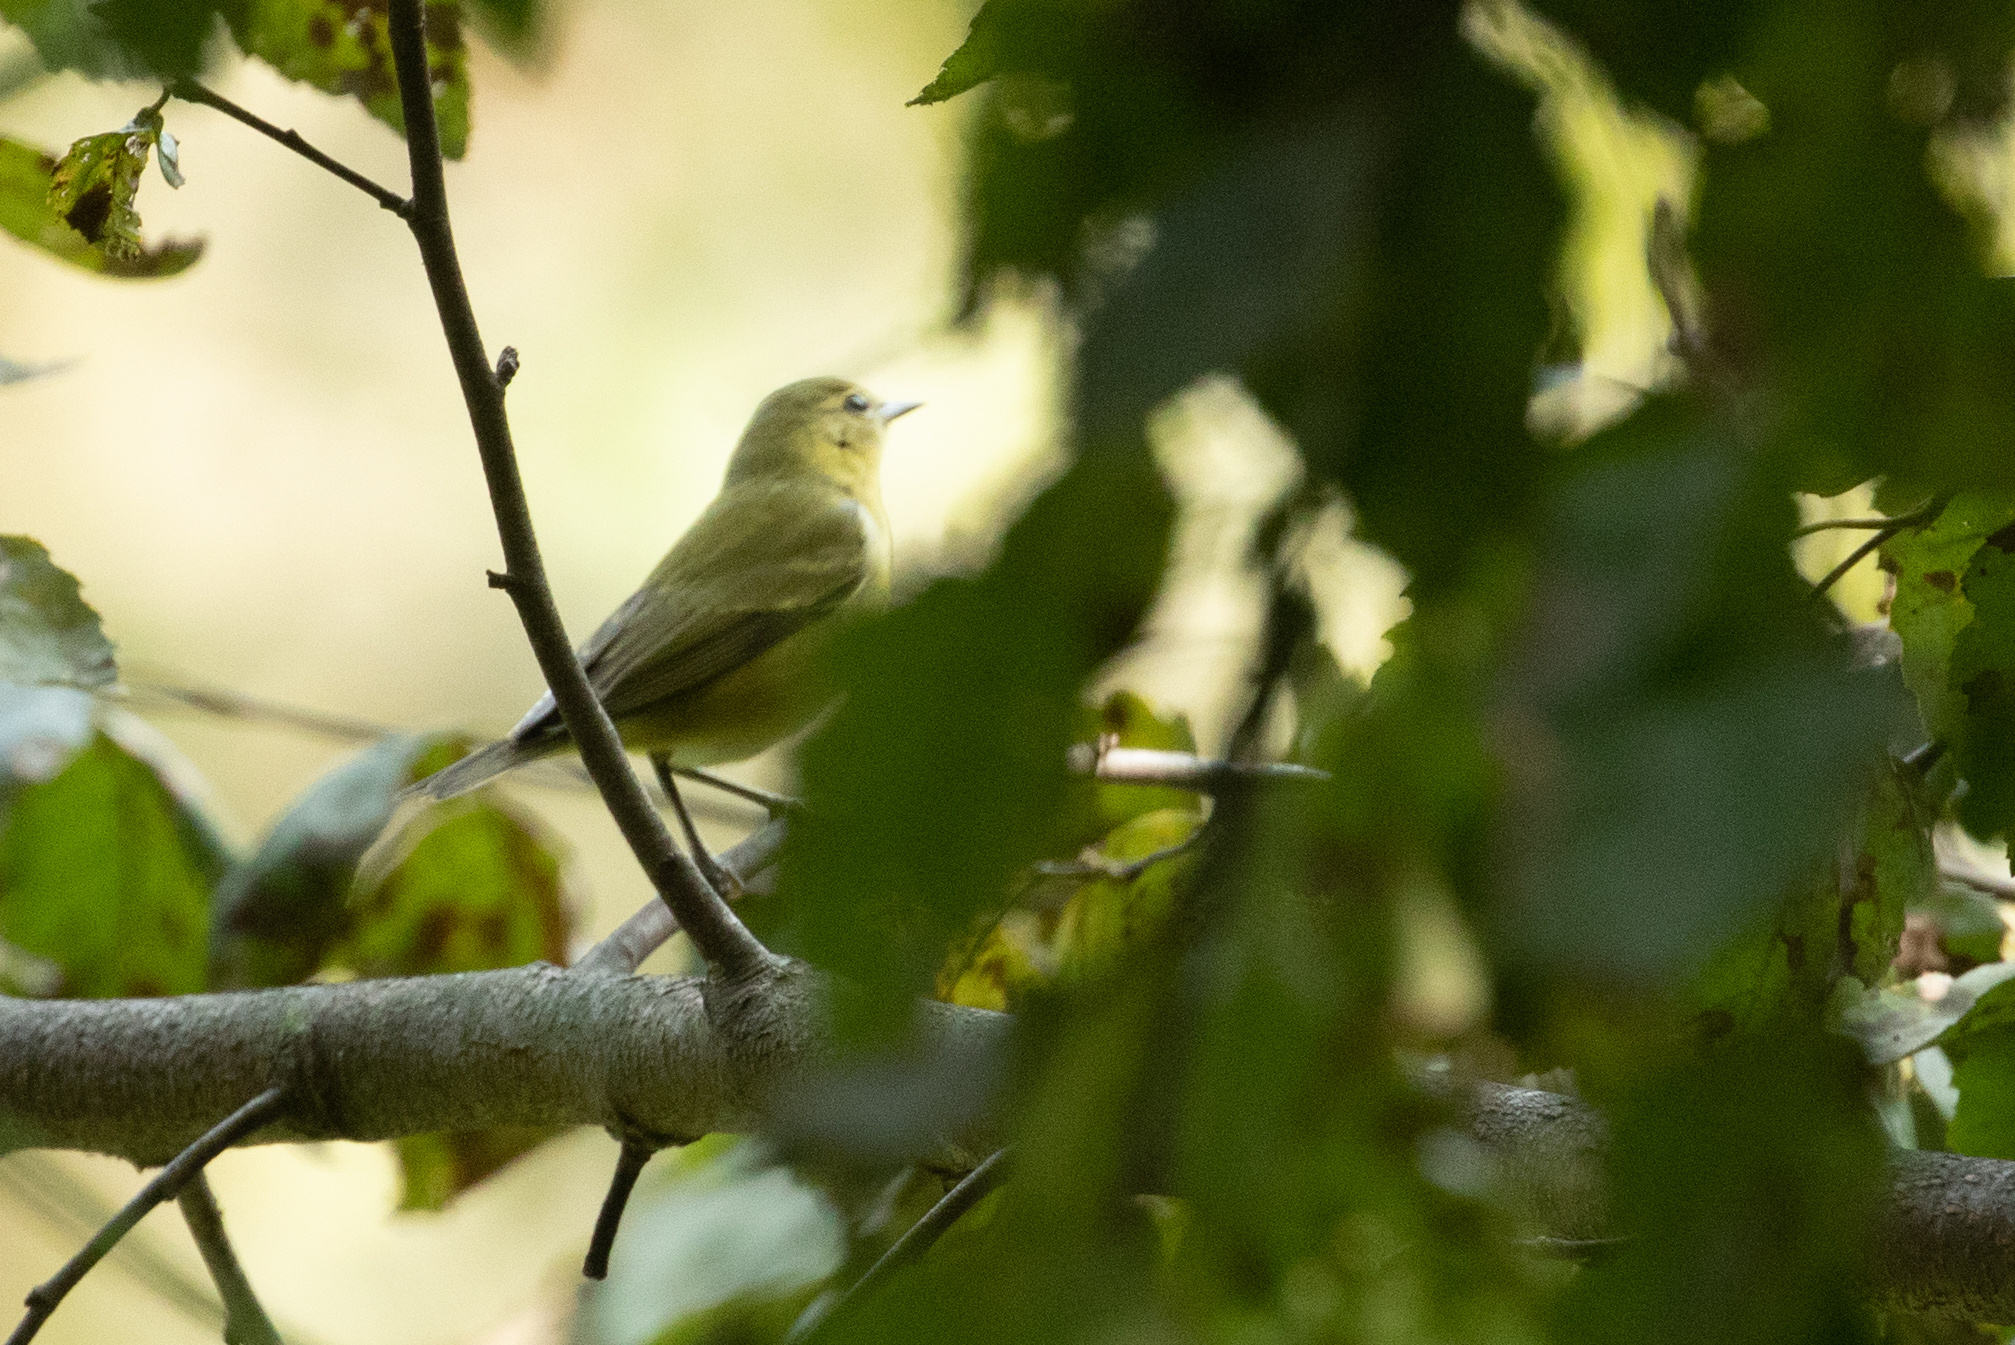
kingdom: Animalia
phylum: Chordata
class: Aves
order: Passeriformes
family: Parulidae
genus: Leiothlypis
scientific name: Leiothlypis peregrina
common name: Tennessee warbler
